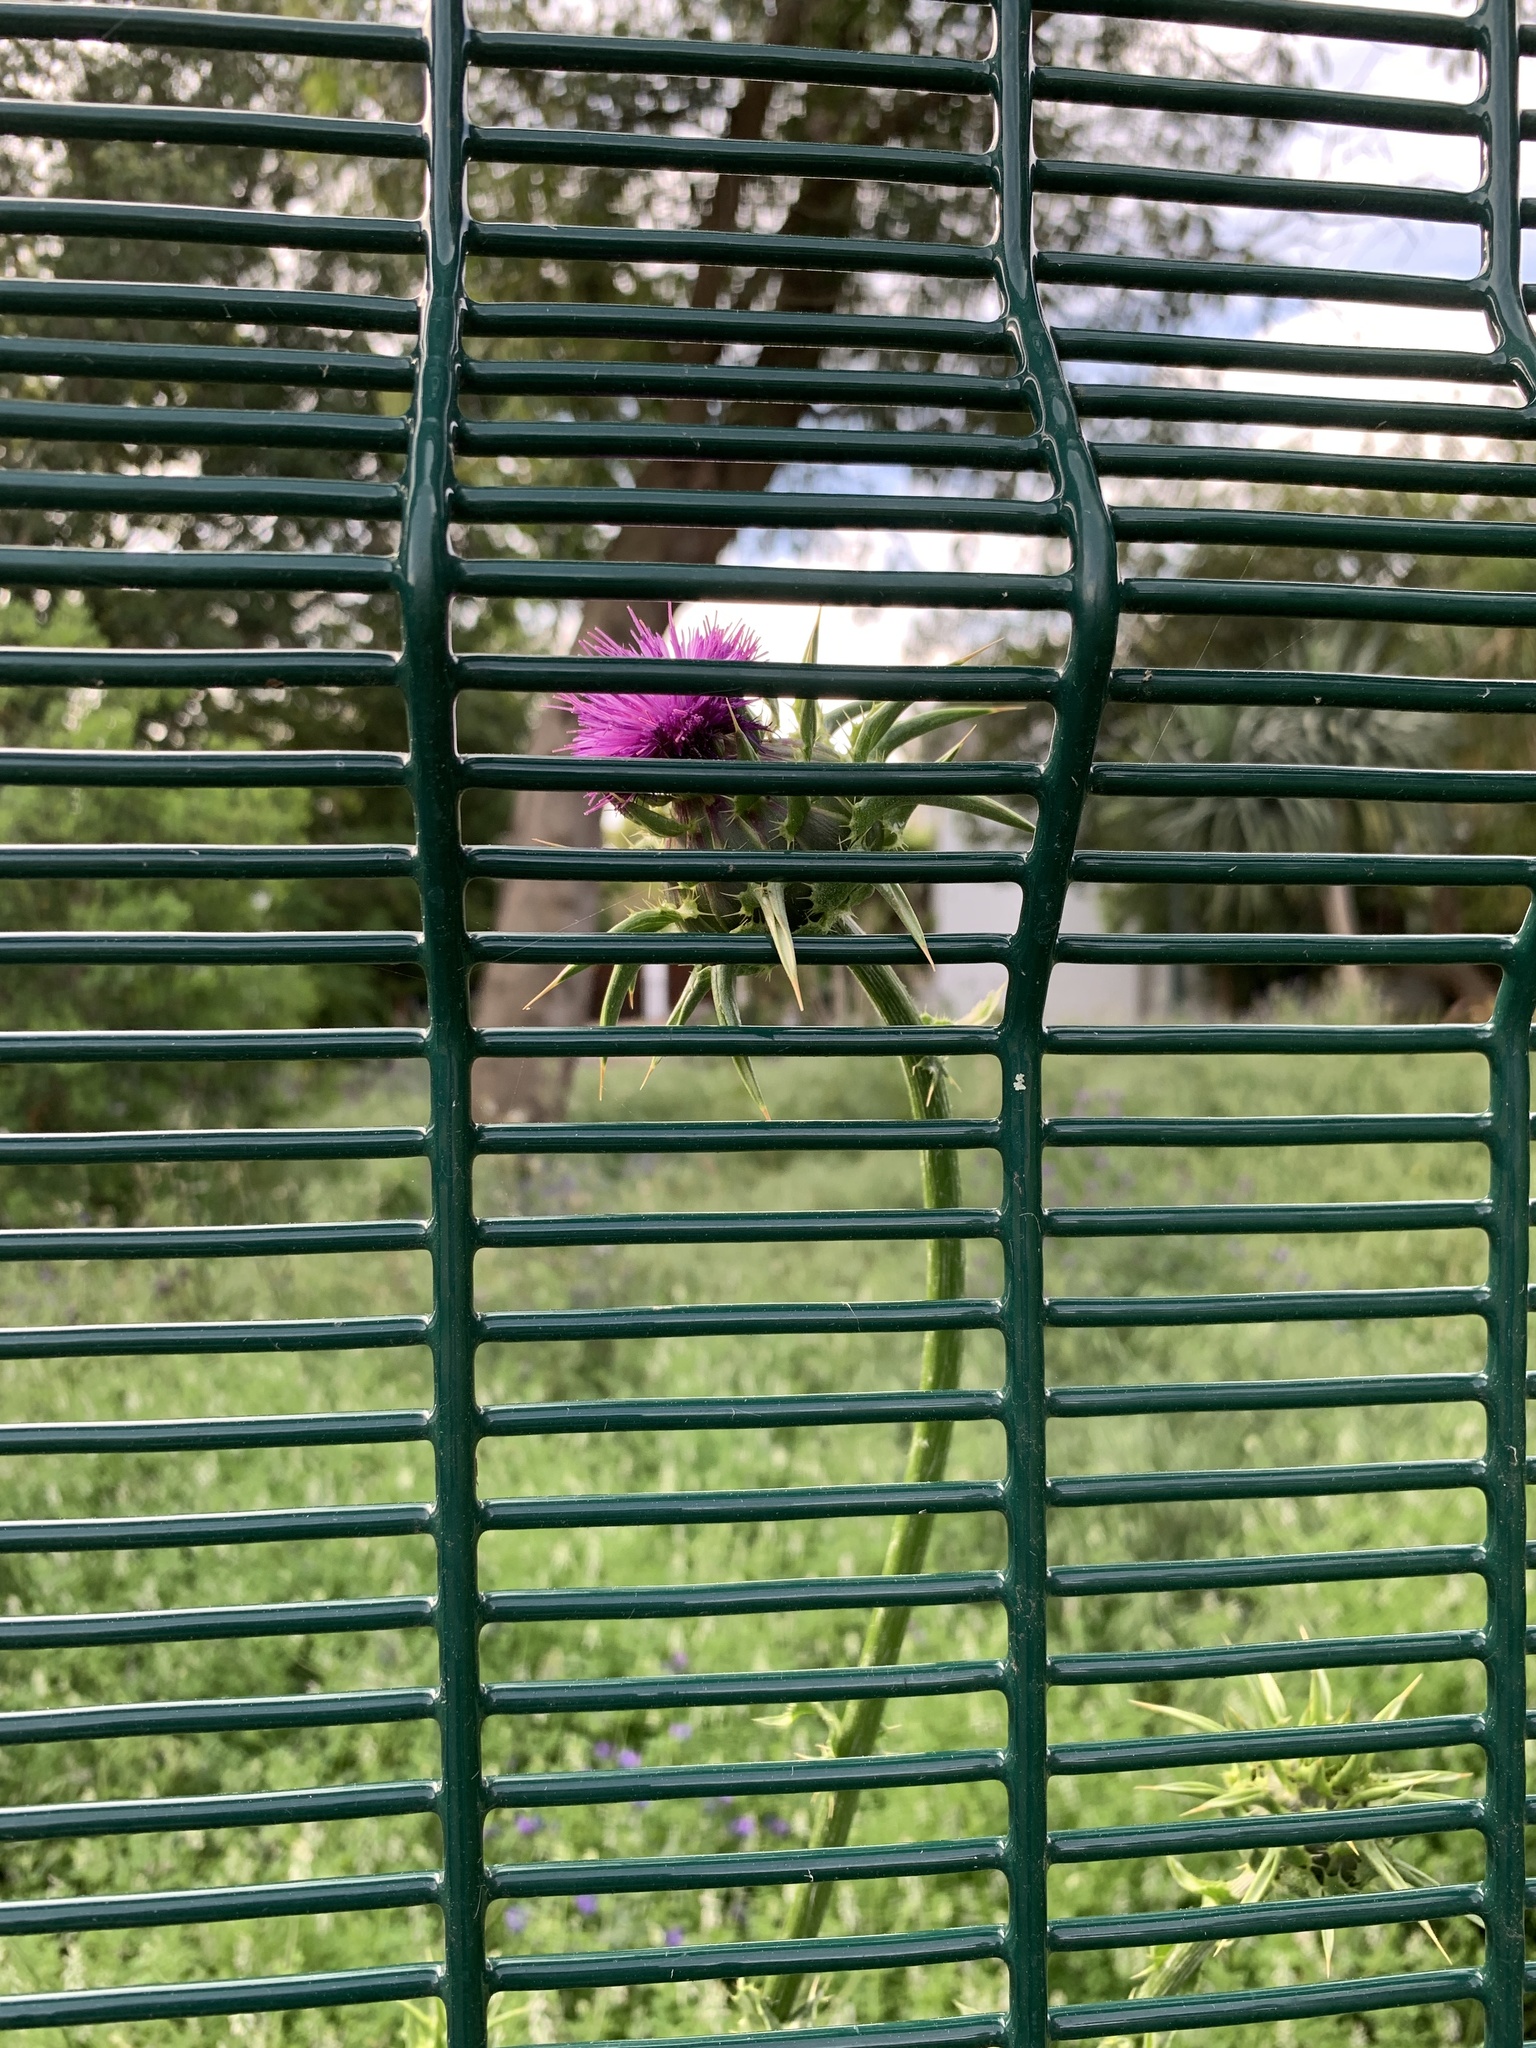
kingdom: Plantae
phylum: Tracheophyta
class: Magnoliopsida
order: Asterales
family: Asteraceae
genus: Silybum
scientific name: Silybum marianum
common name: Milk thistle
